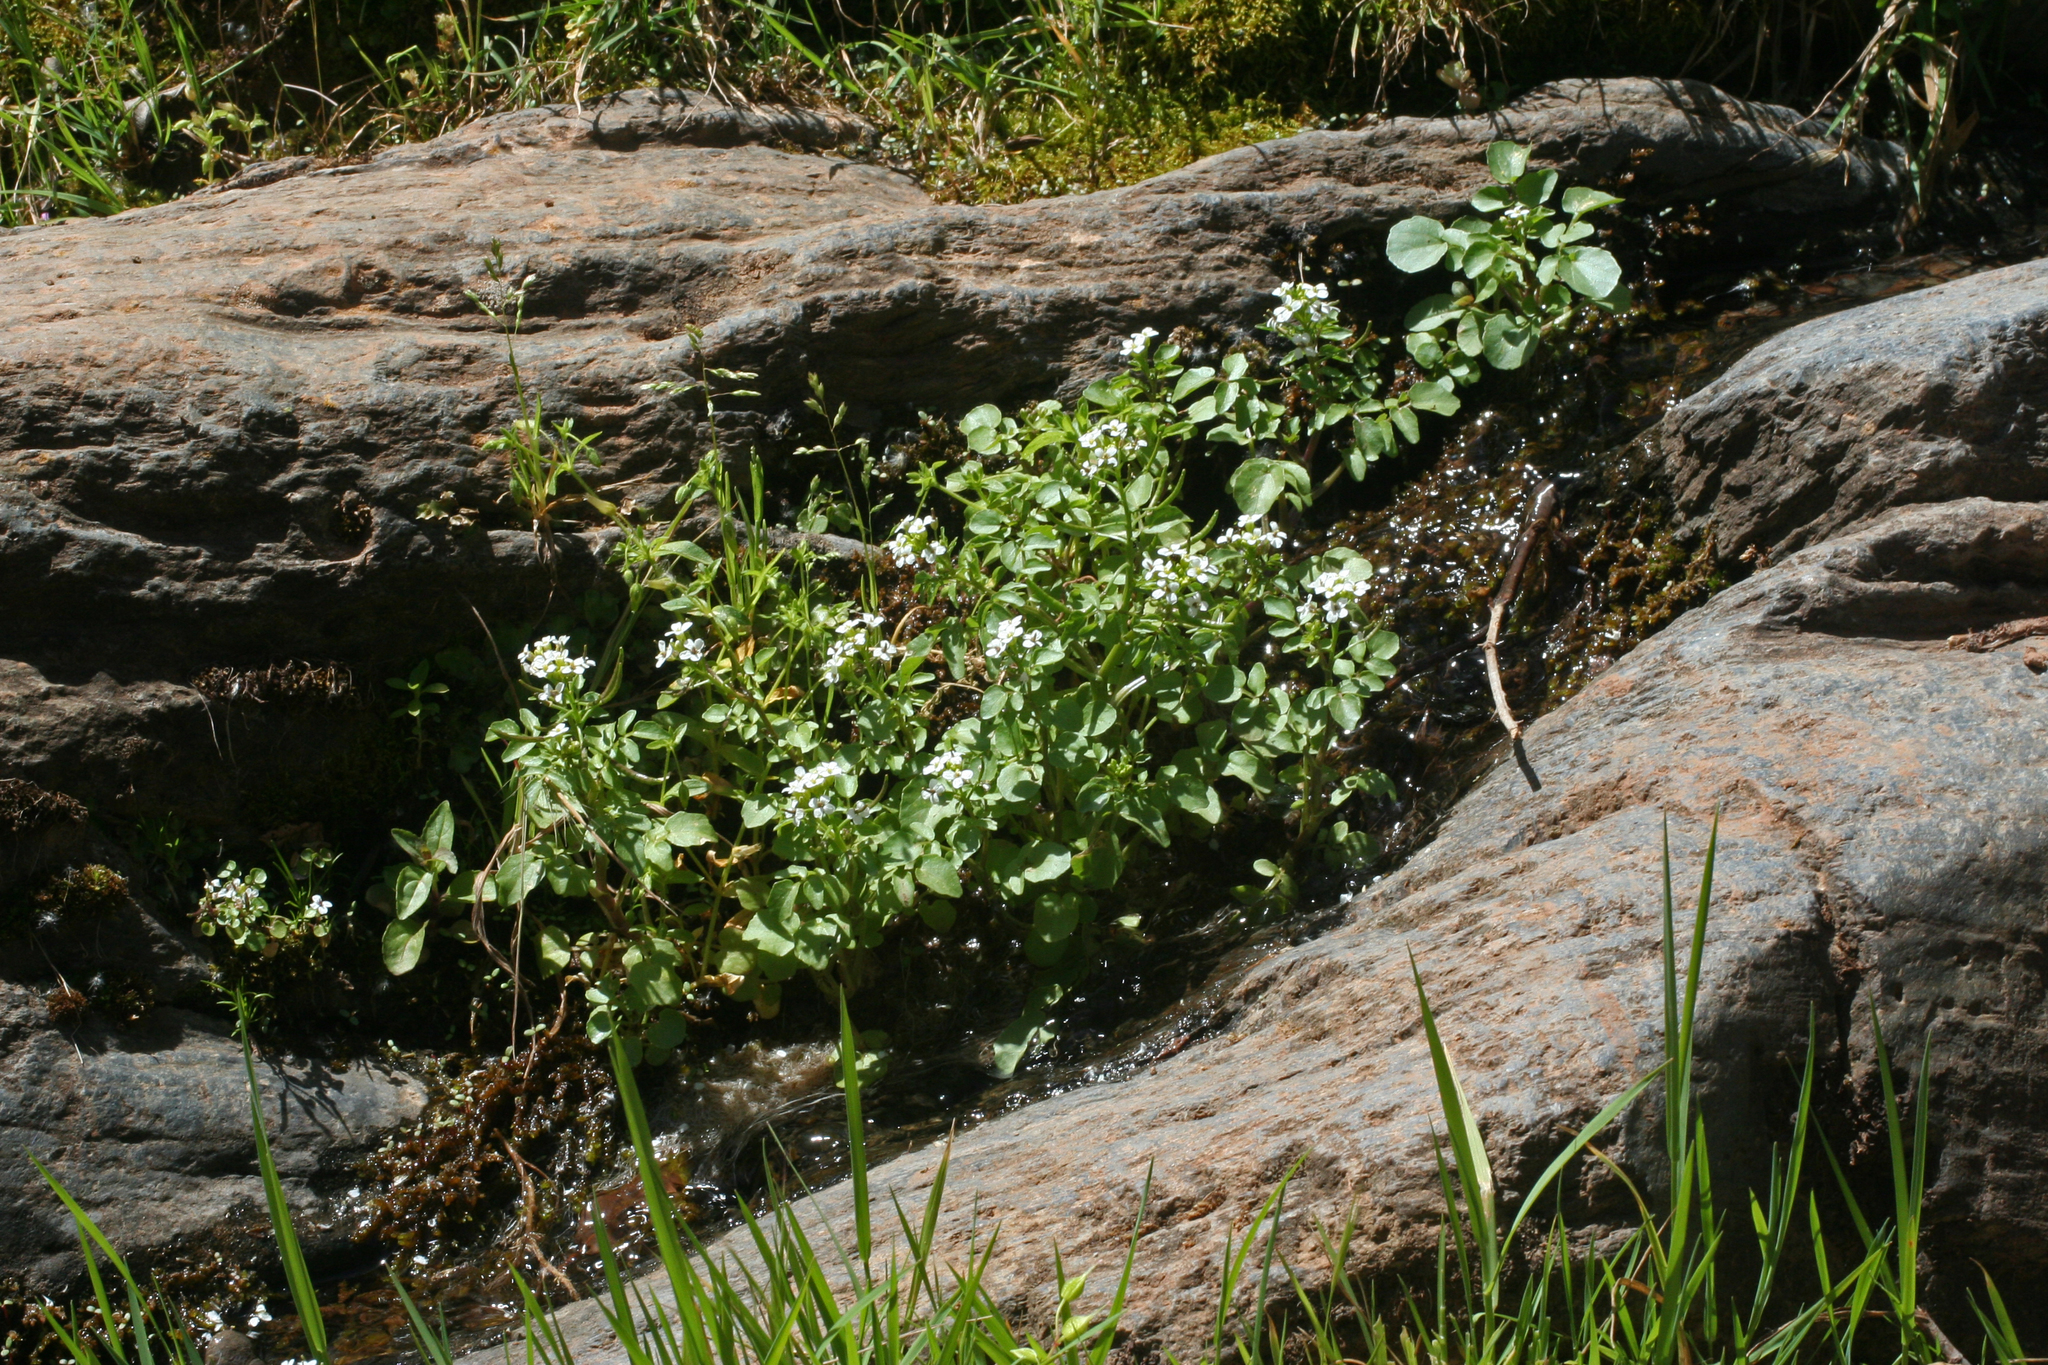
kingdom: Plantae
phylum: Tracheophyta
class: Magnoliopsida
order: Brassicales
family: Brassicaceae
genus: Nasturtium
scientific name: Nasturtium officinale
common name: Watercress
